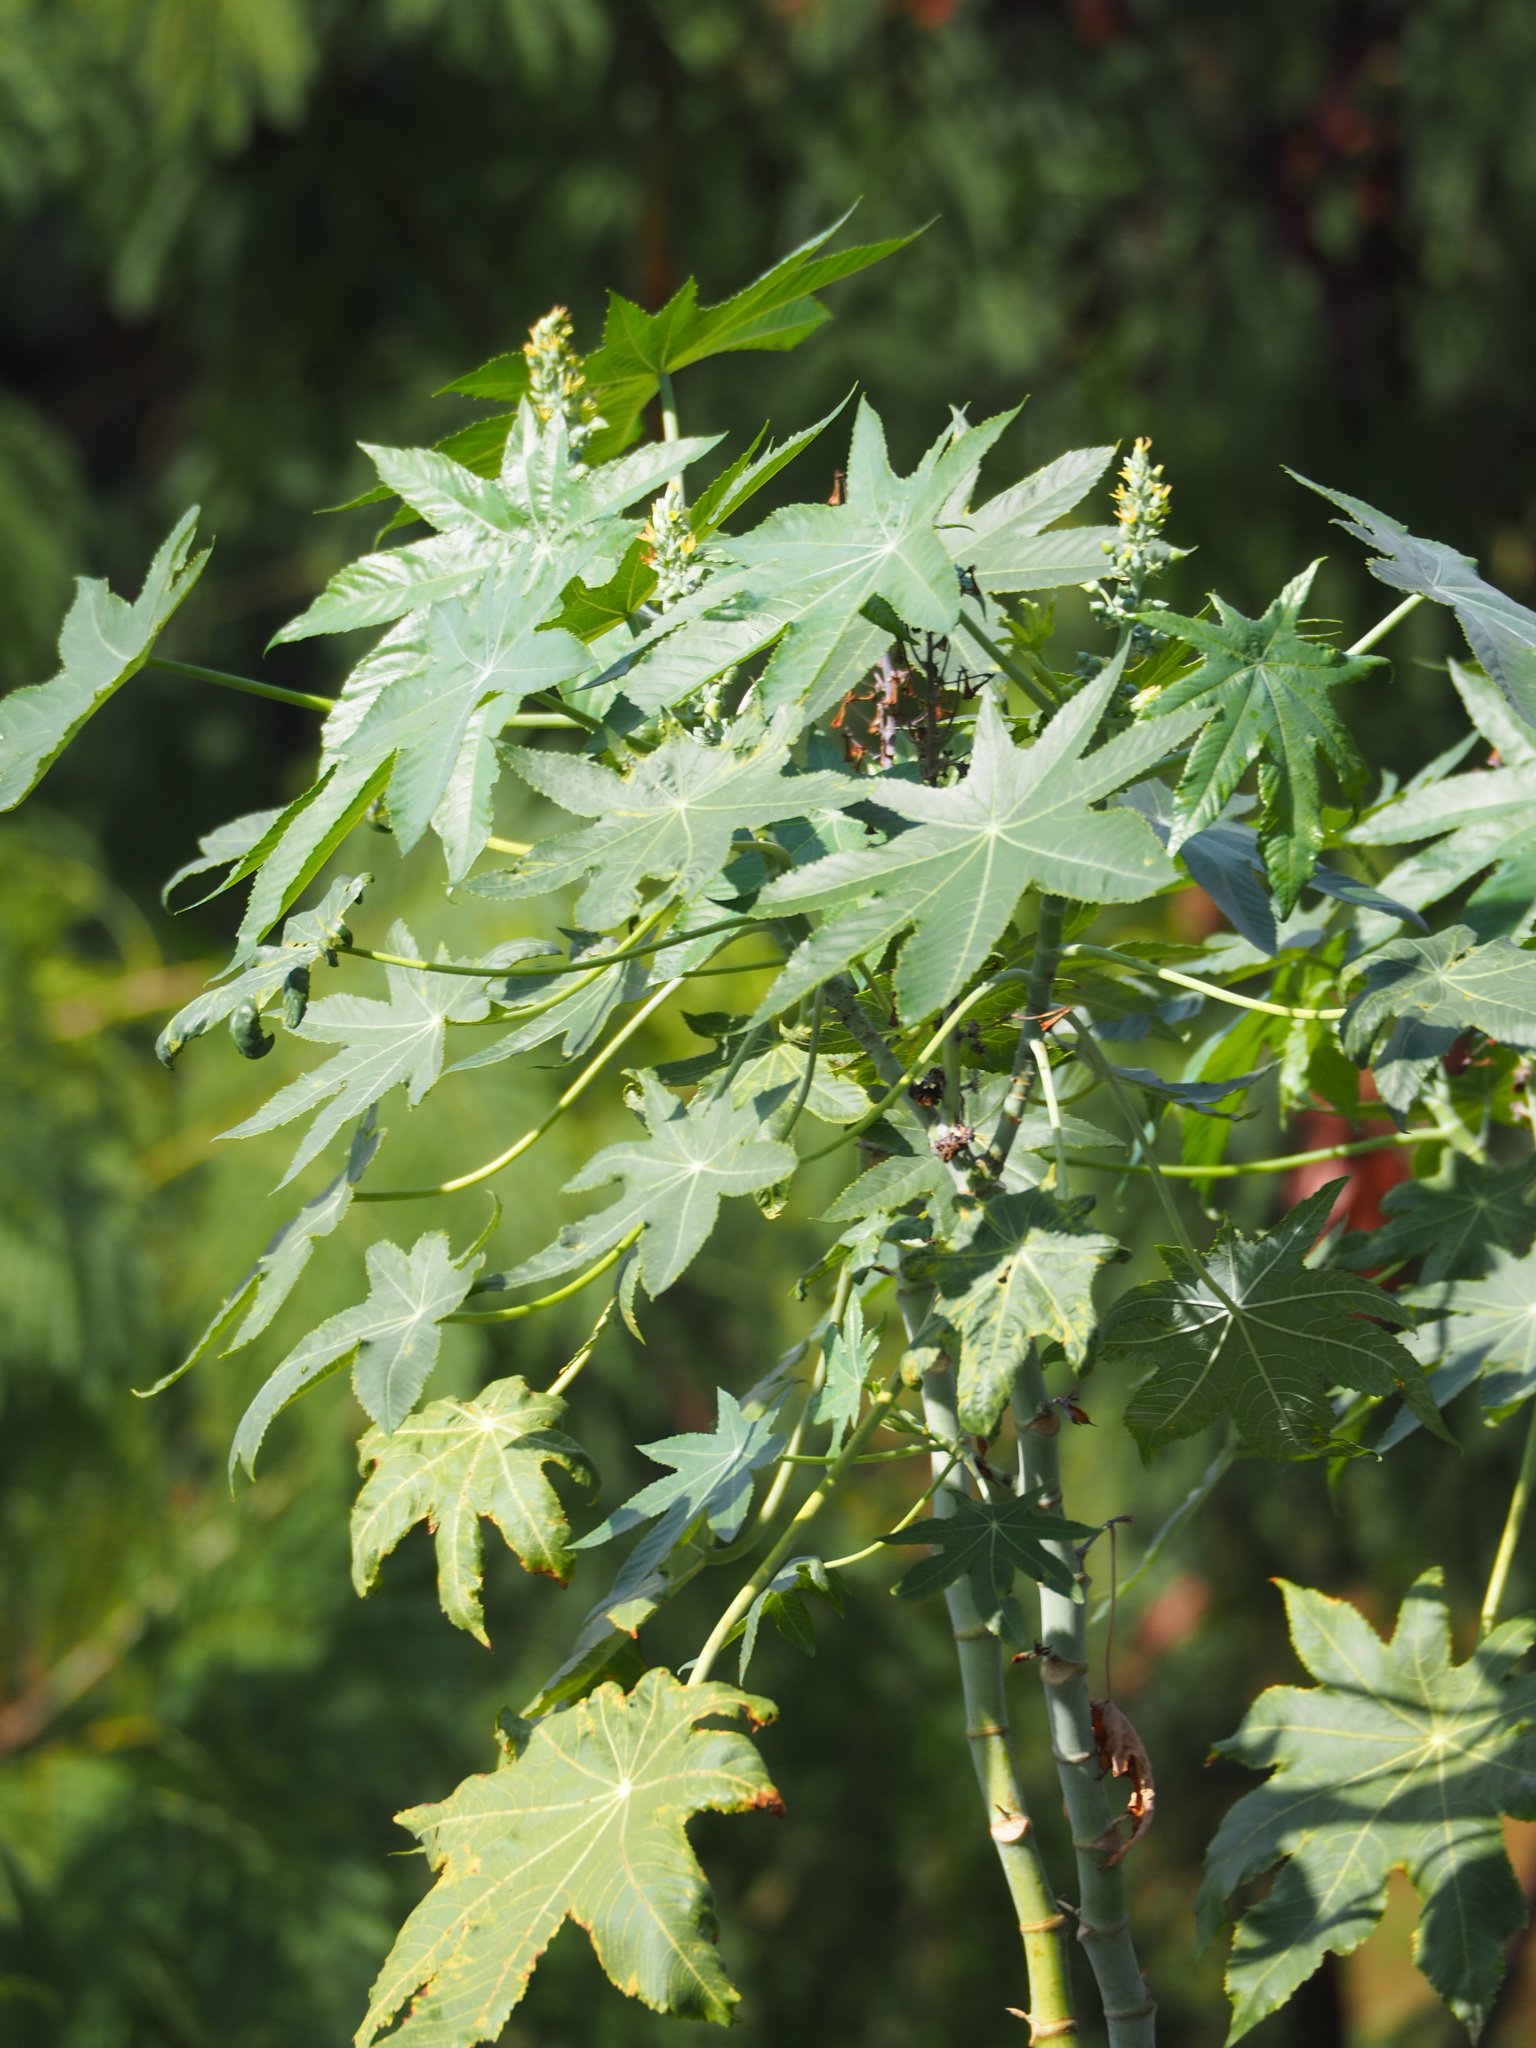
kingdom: Plantae
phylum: Tracheophyta
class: Magnoliopsida
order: Malpighiales
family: Euphorbiaceae
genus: Ricinus
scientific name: Ricinus communis
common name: Castor-oil-plant
